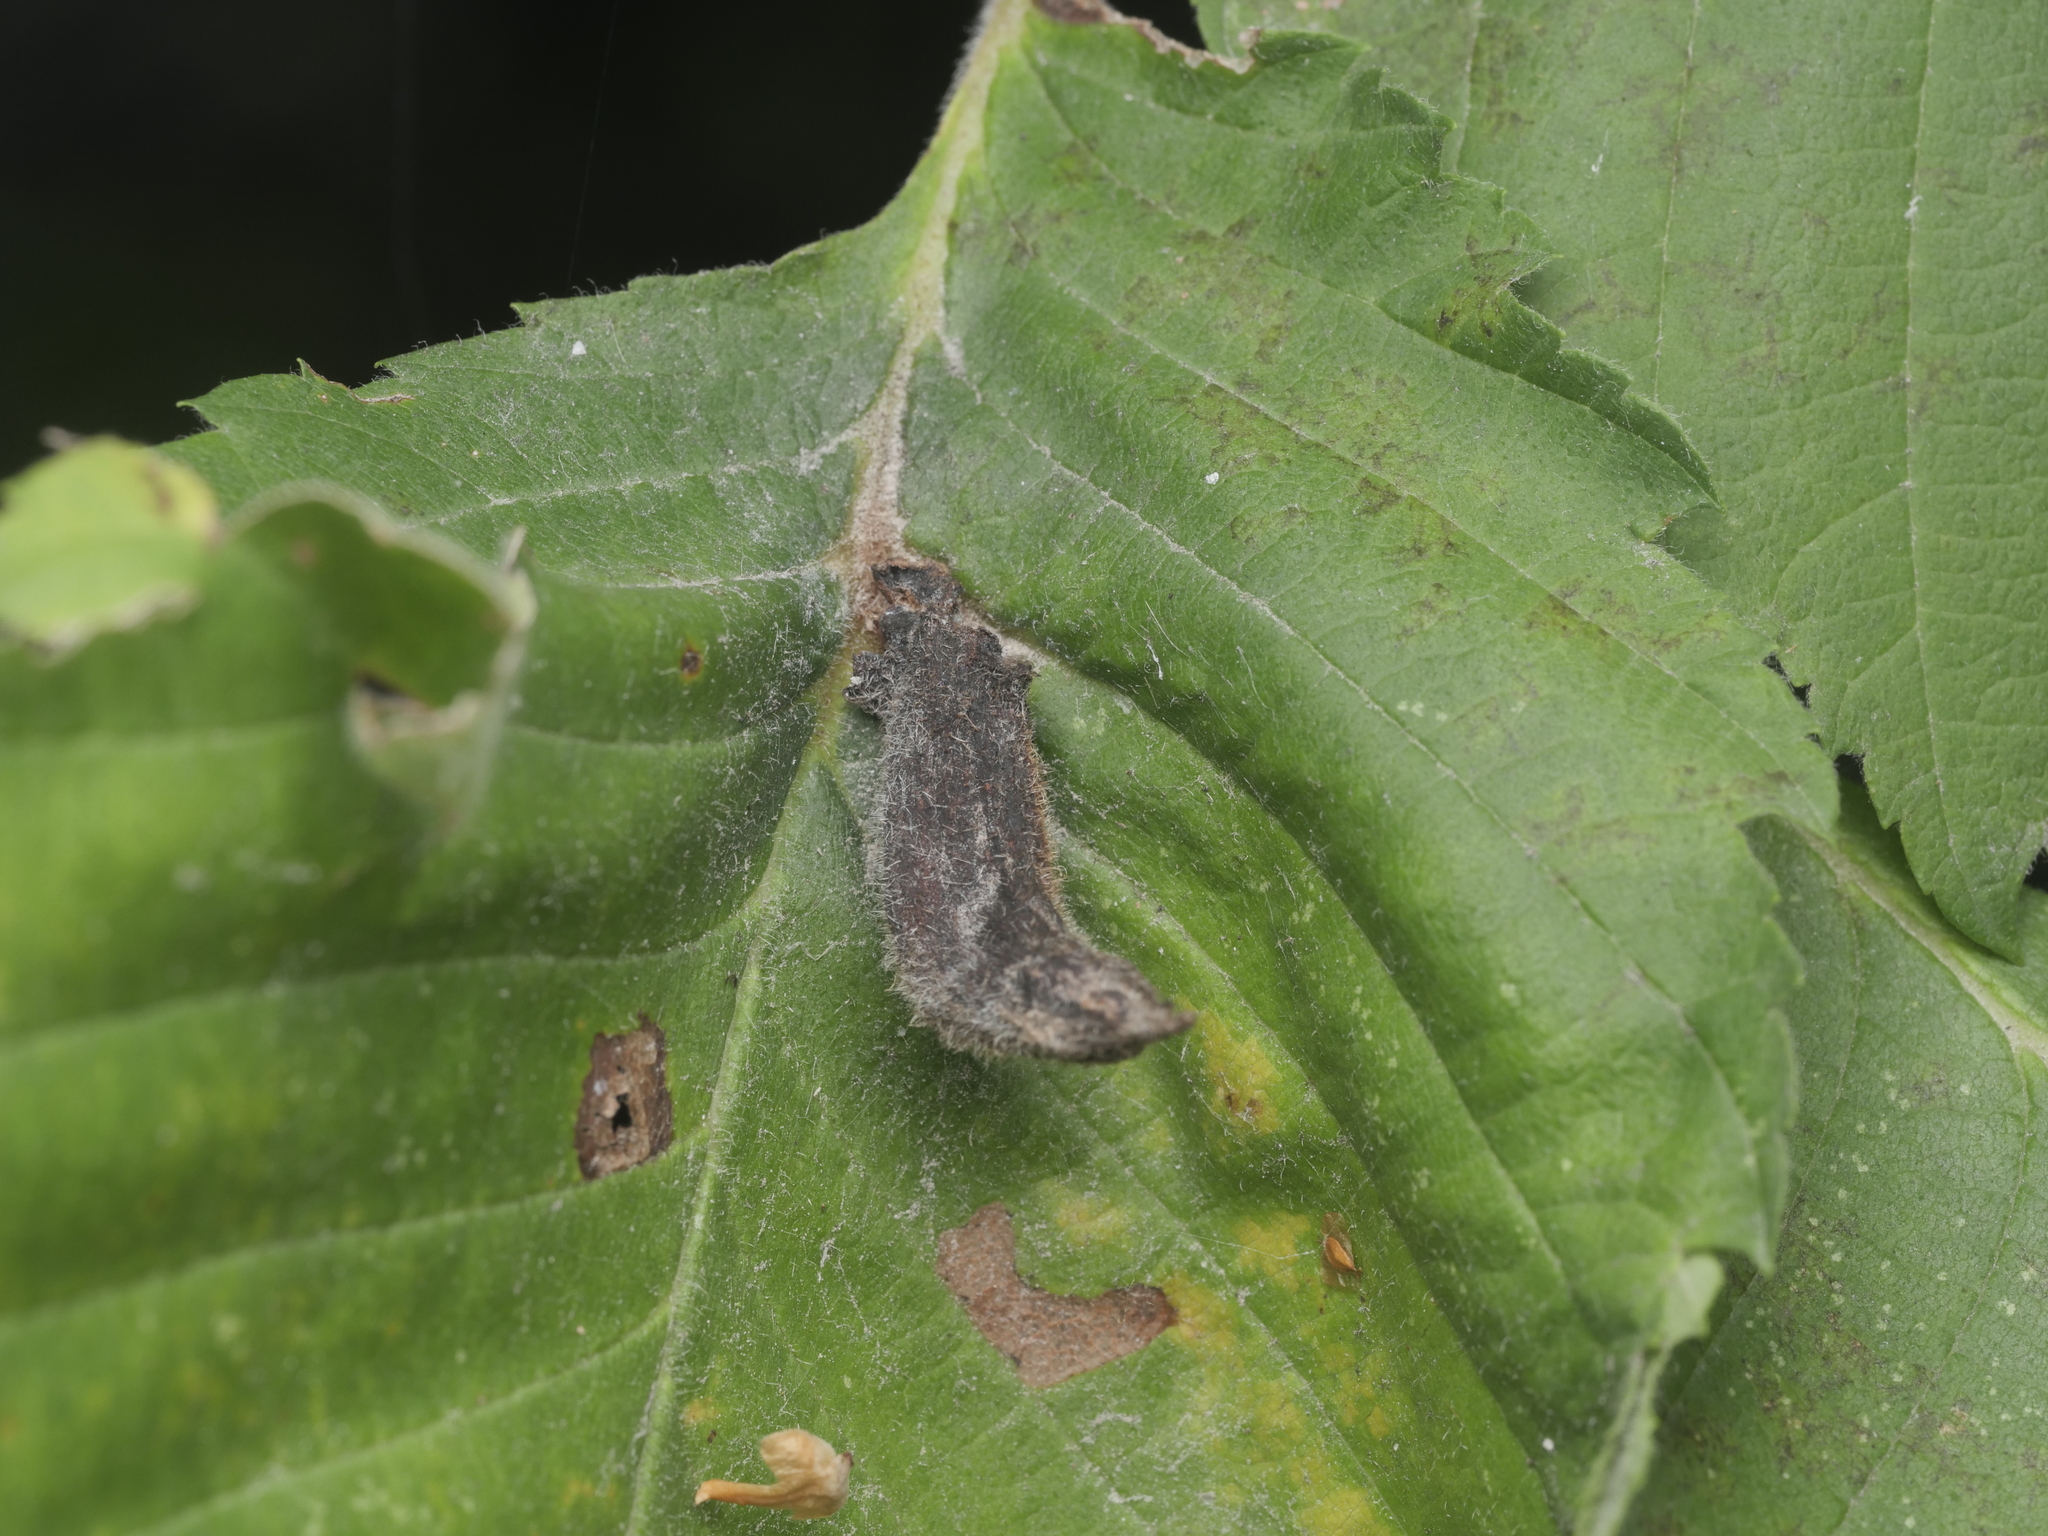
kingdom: Animalia
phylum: Arthropoda
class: Insecta
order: Hemiptera
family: Aphididae
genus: Tetraneura
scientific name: Tetraneura nigriabdominalis
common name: Aphid
